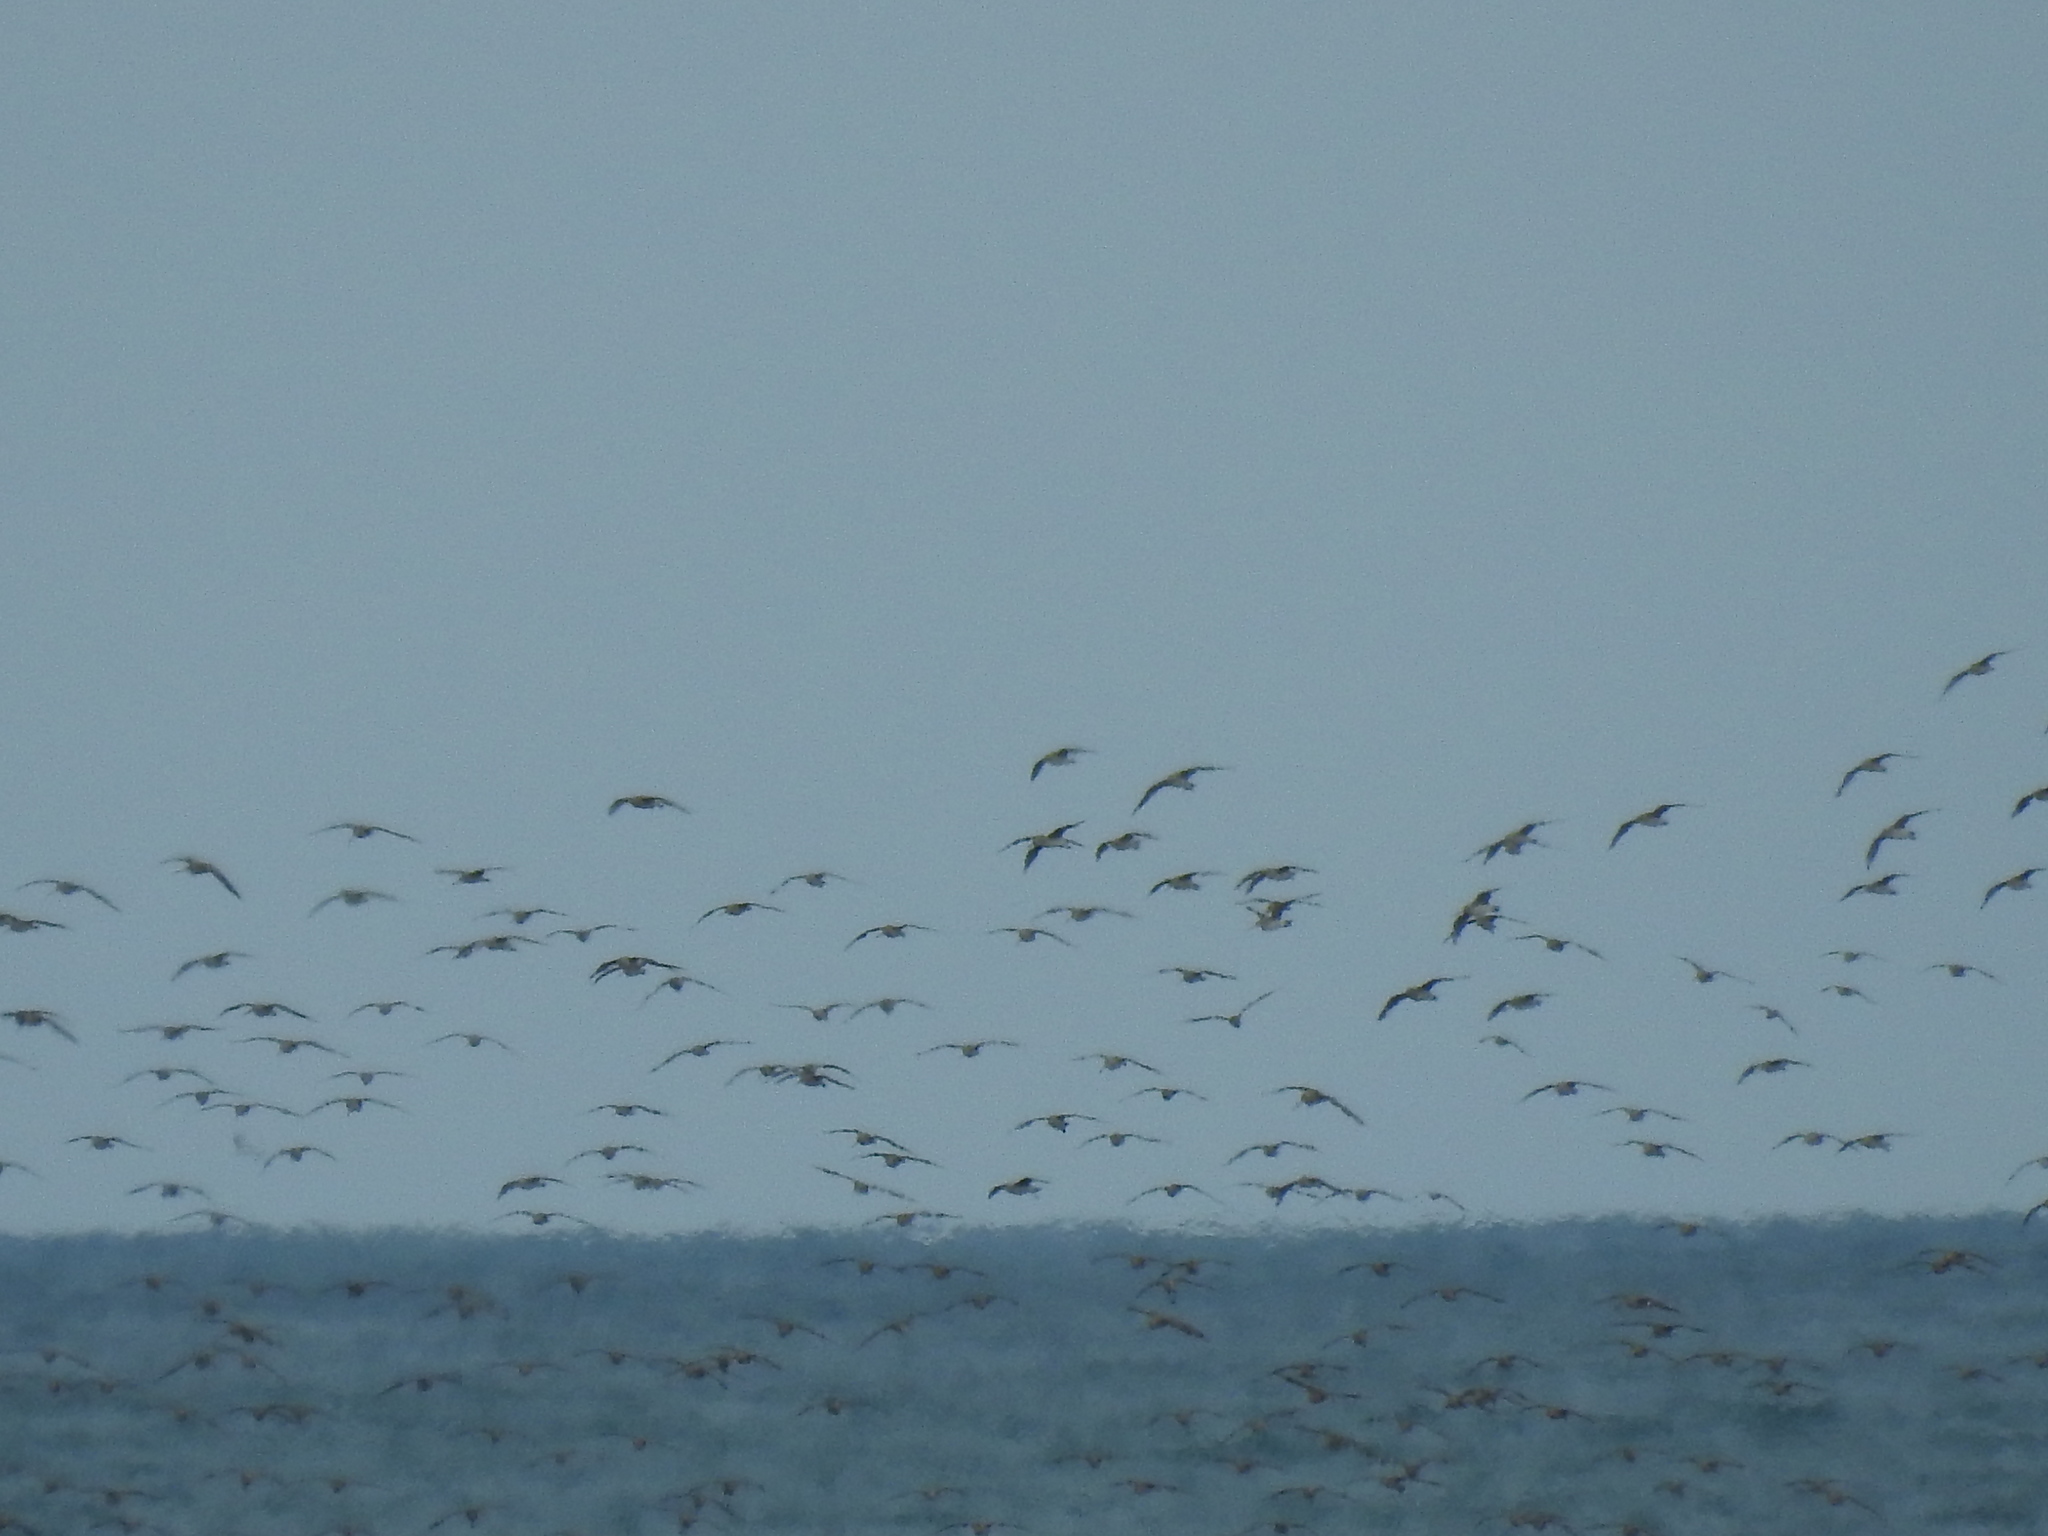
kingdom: Animalia
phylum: Chordata
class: Aves
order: Charadriiformes
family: Scolopacidae
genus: Limosa
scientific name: Limosa lapponica
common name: Bar-tailed godwit
